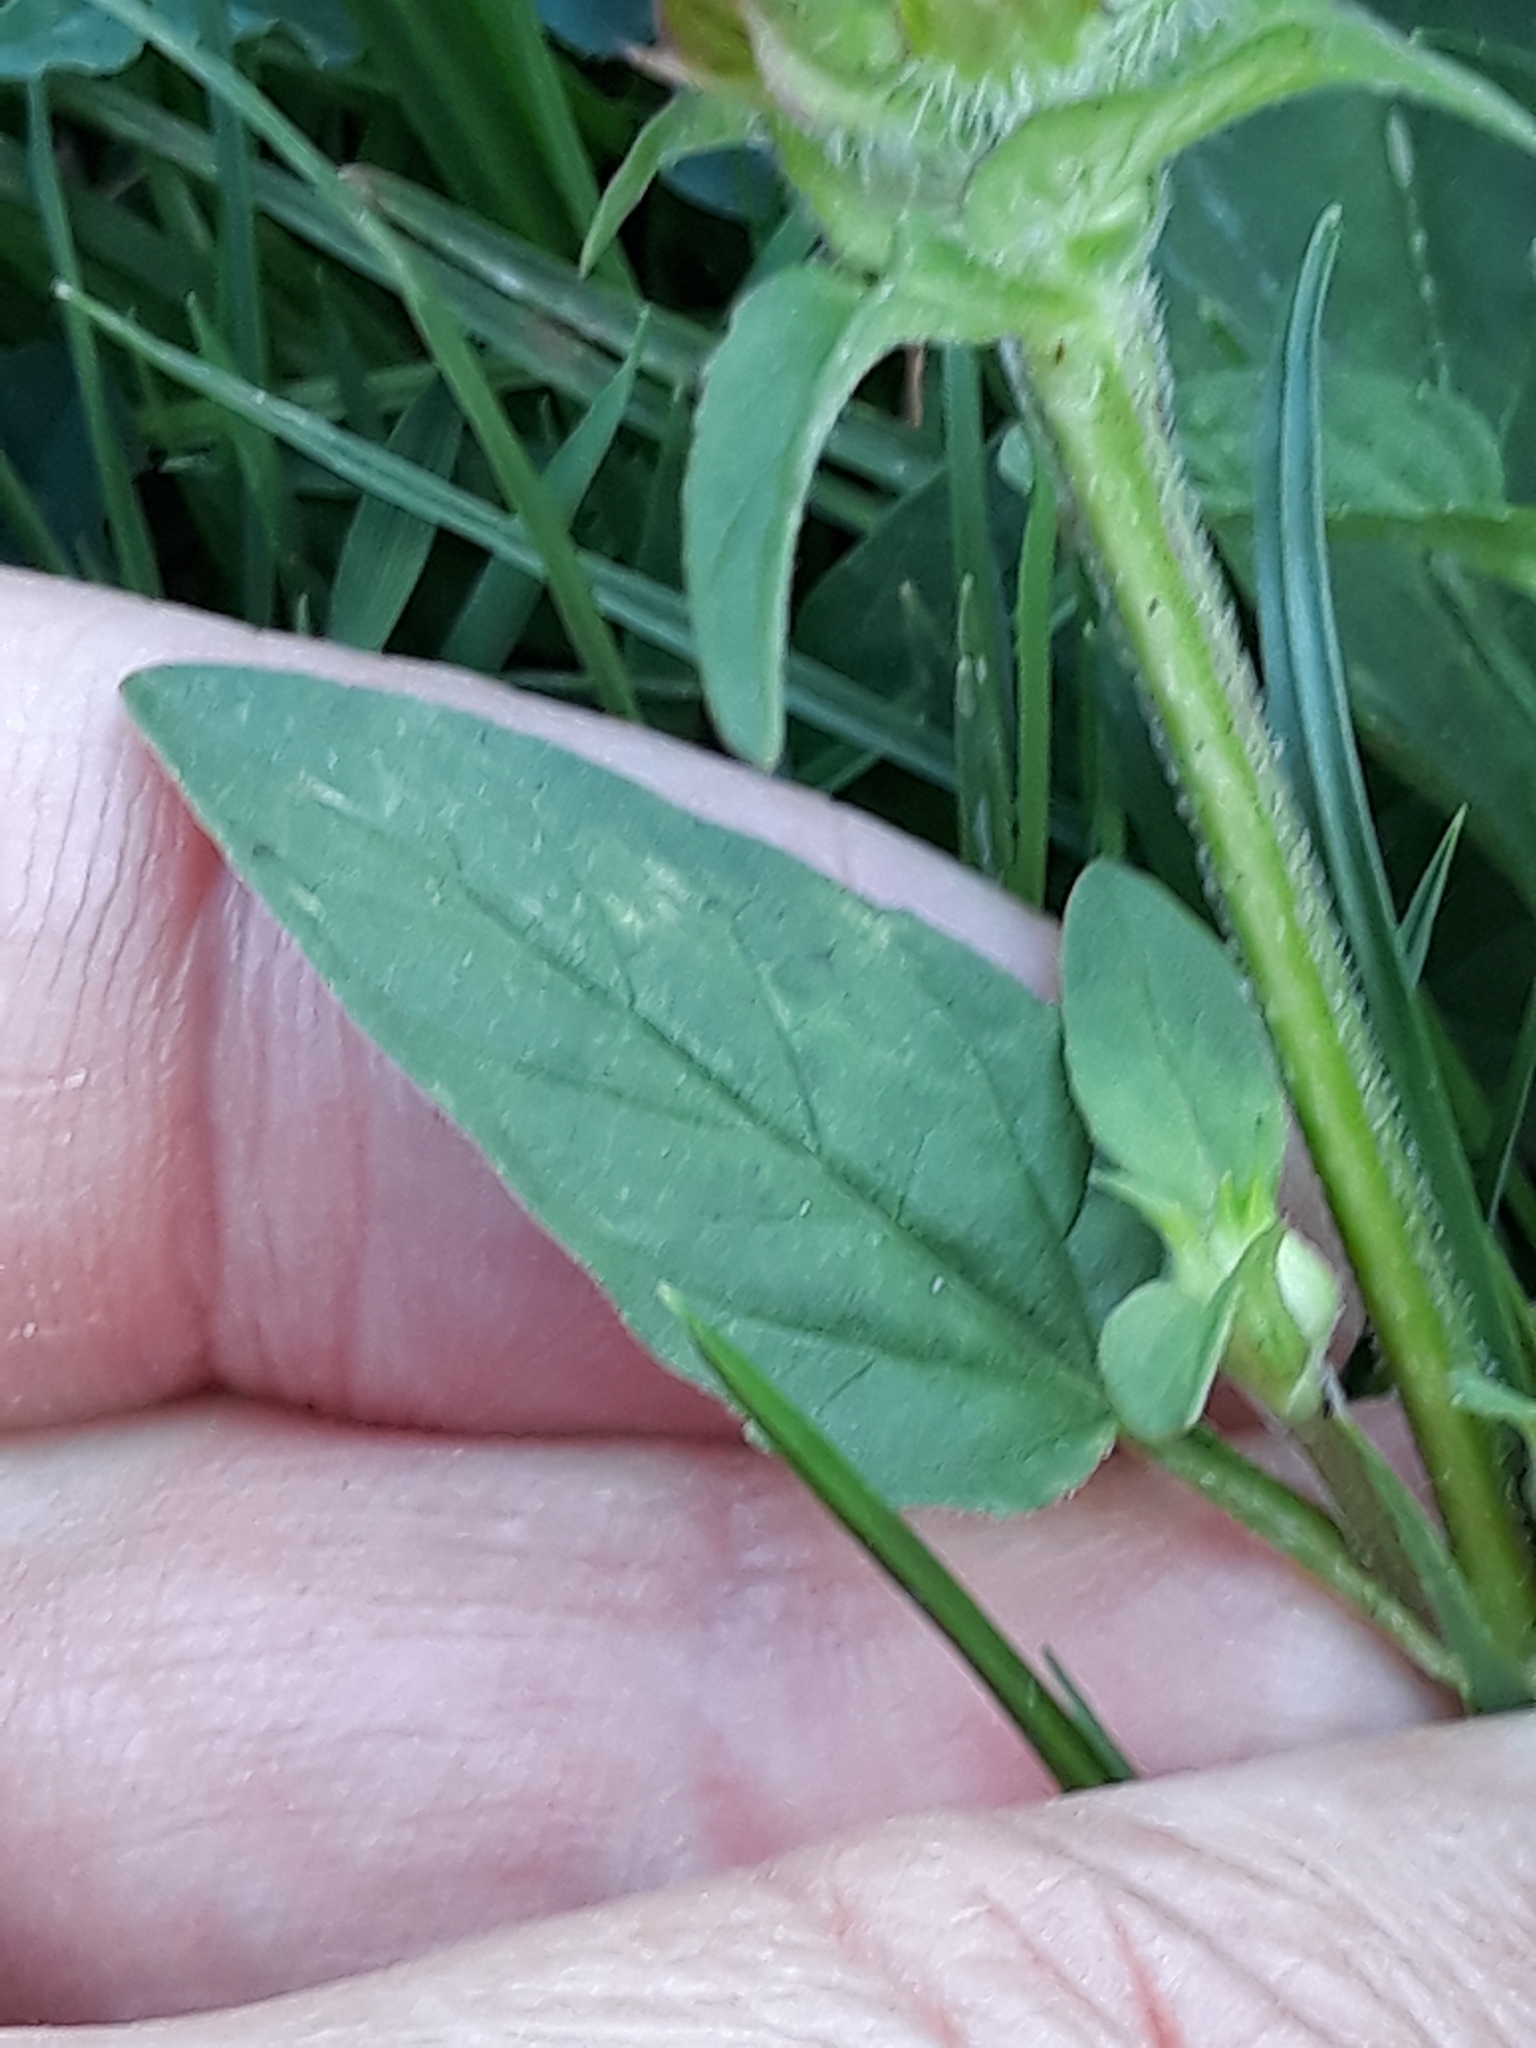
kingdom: Plantae
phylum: Tracheophyta
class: Magnoliopsida
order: Lamiales
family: Lamiaceae
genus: Prunella
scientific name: Prunella vulgaris
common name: Heal-all
